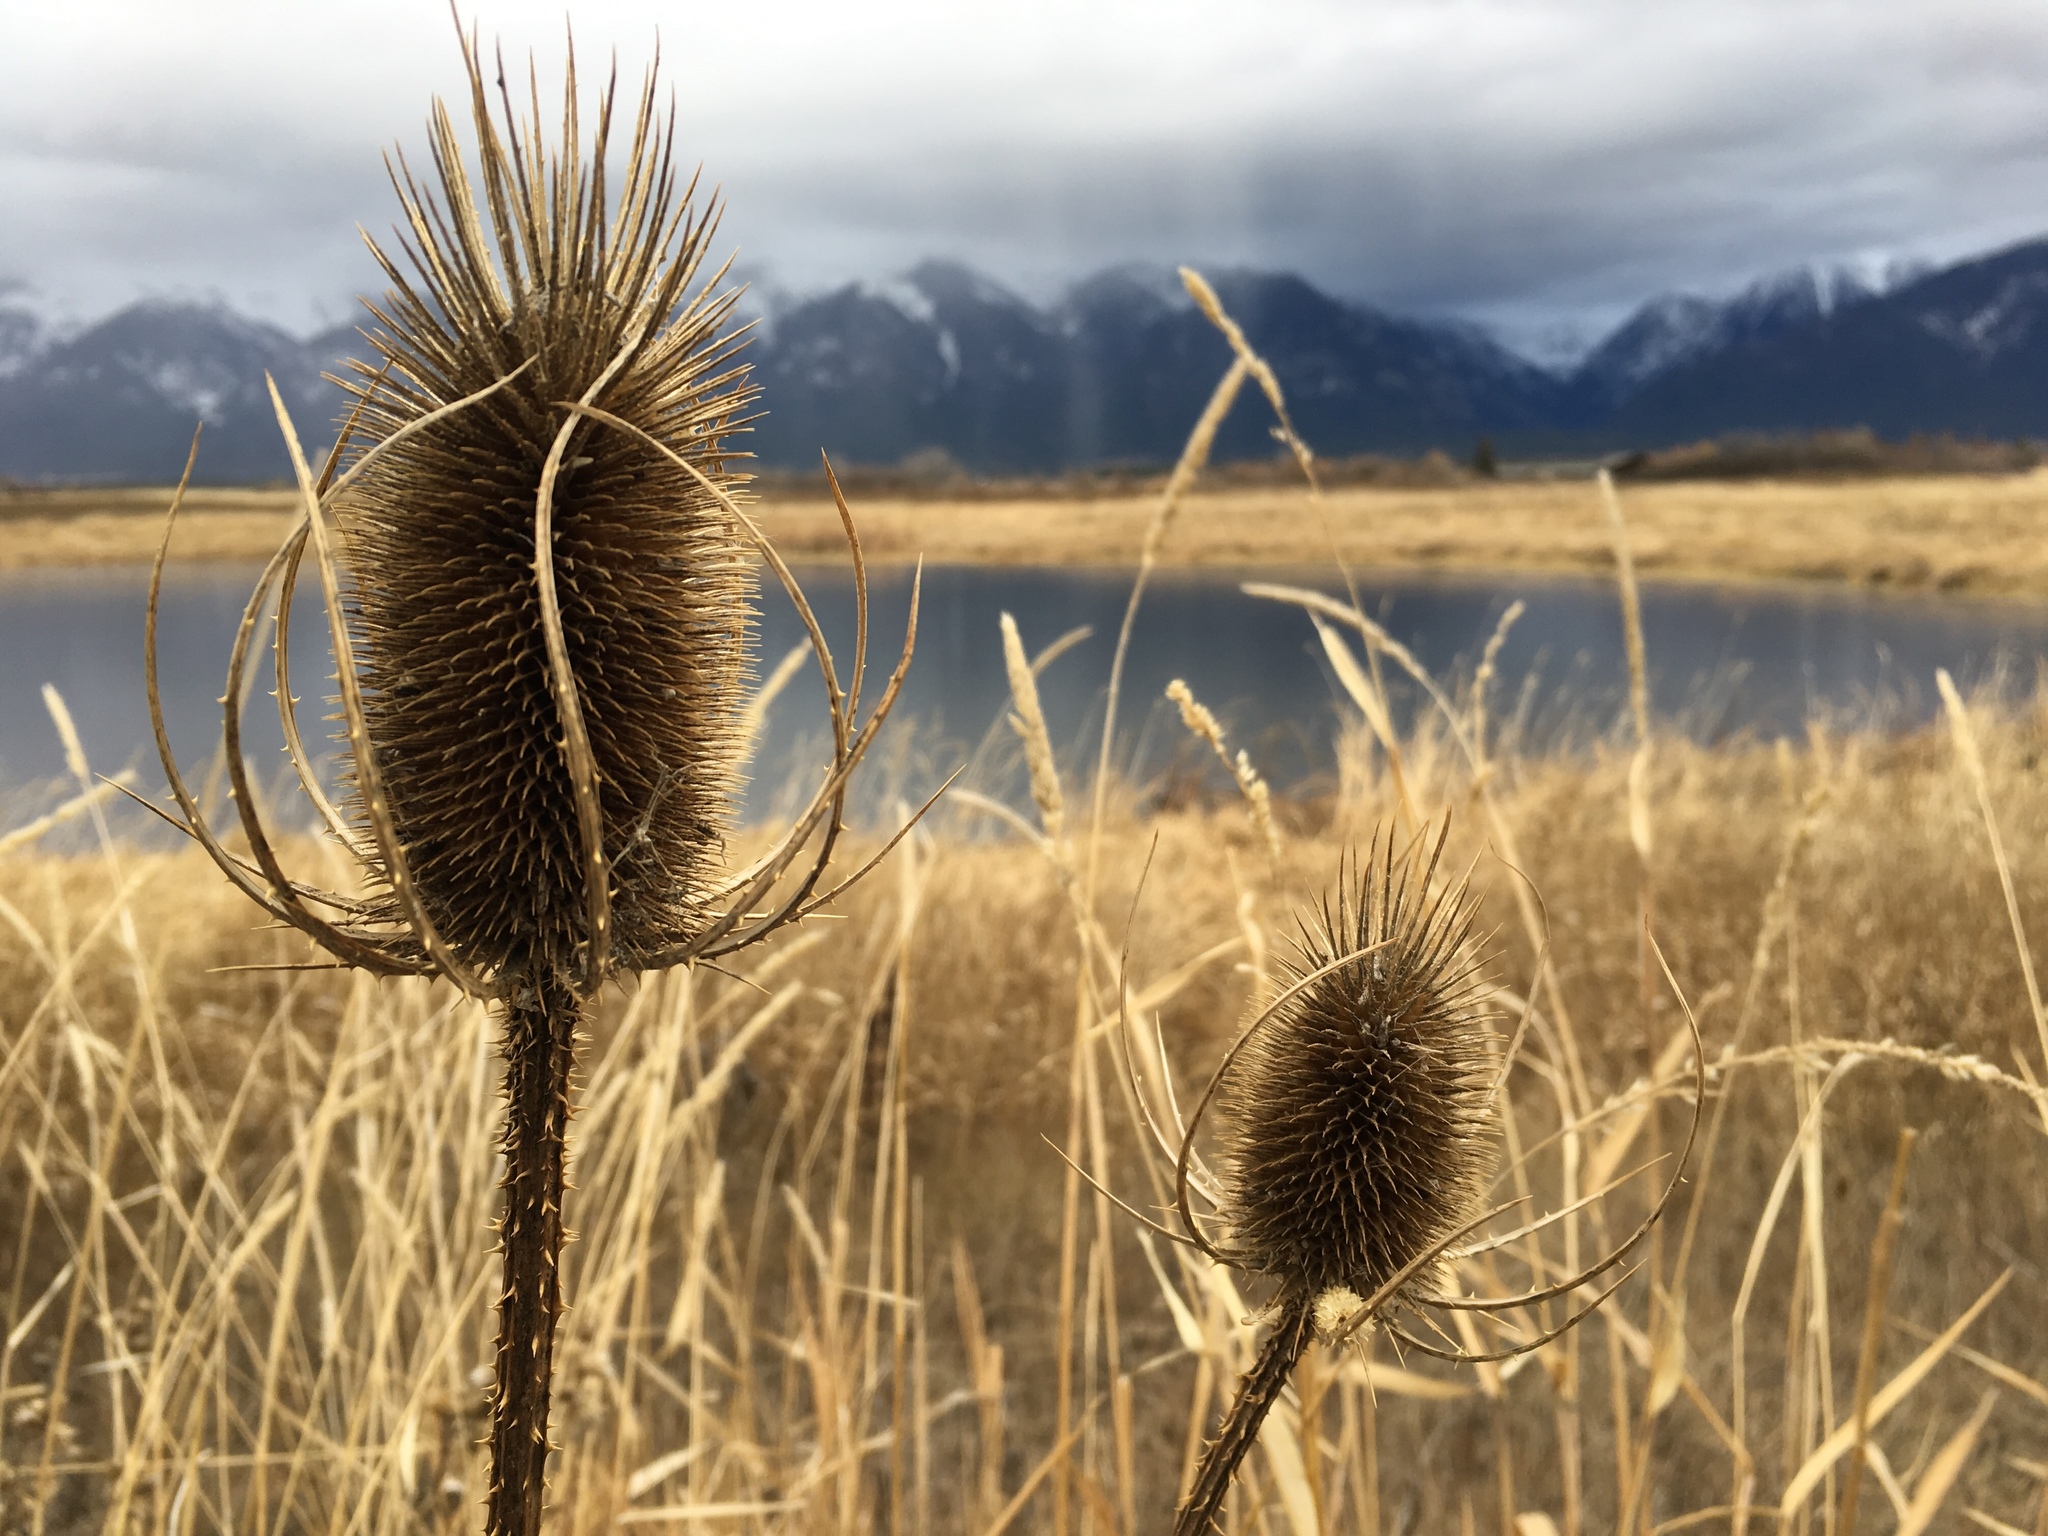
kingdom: Plantae
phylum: Tracheophyta
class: Magnoliopsida
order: Dipsacales
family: Caprifoliaceae
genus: Dipsacus
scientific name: Dipsacus fullonum
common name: Teasel
